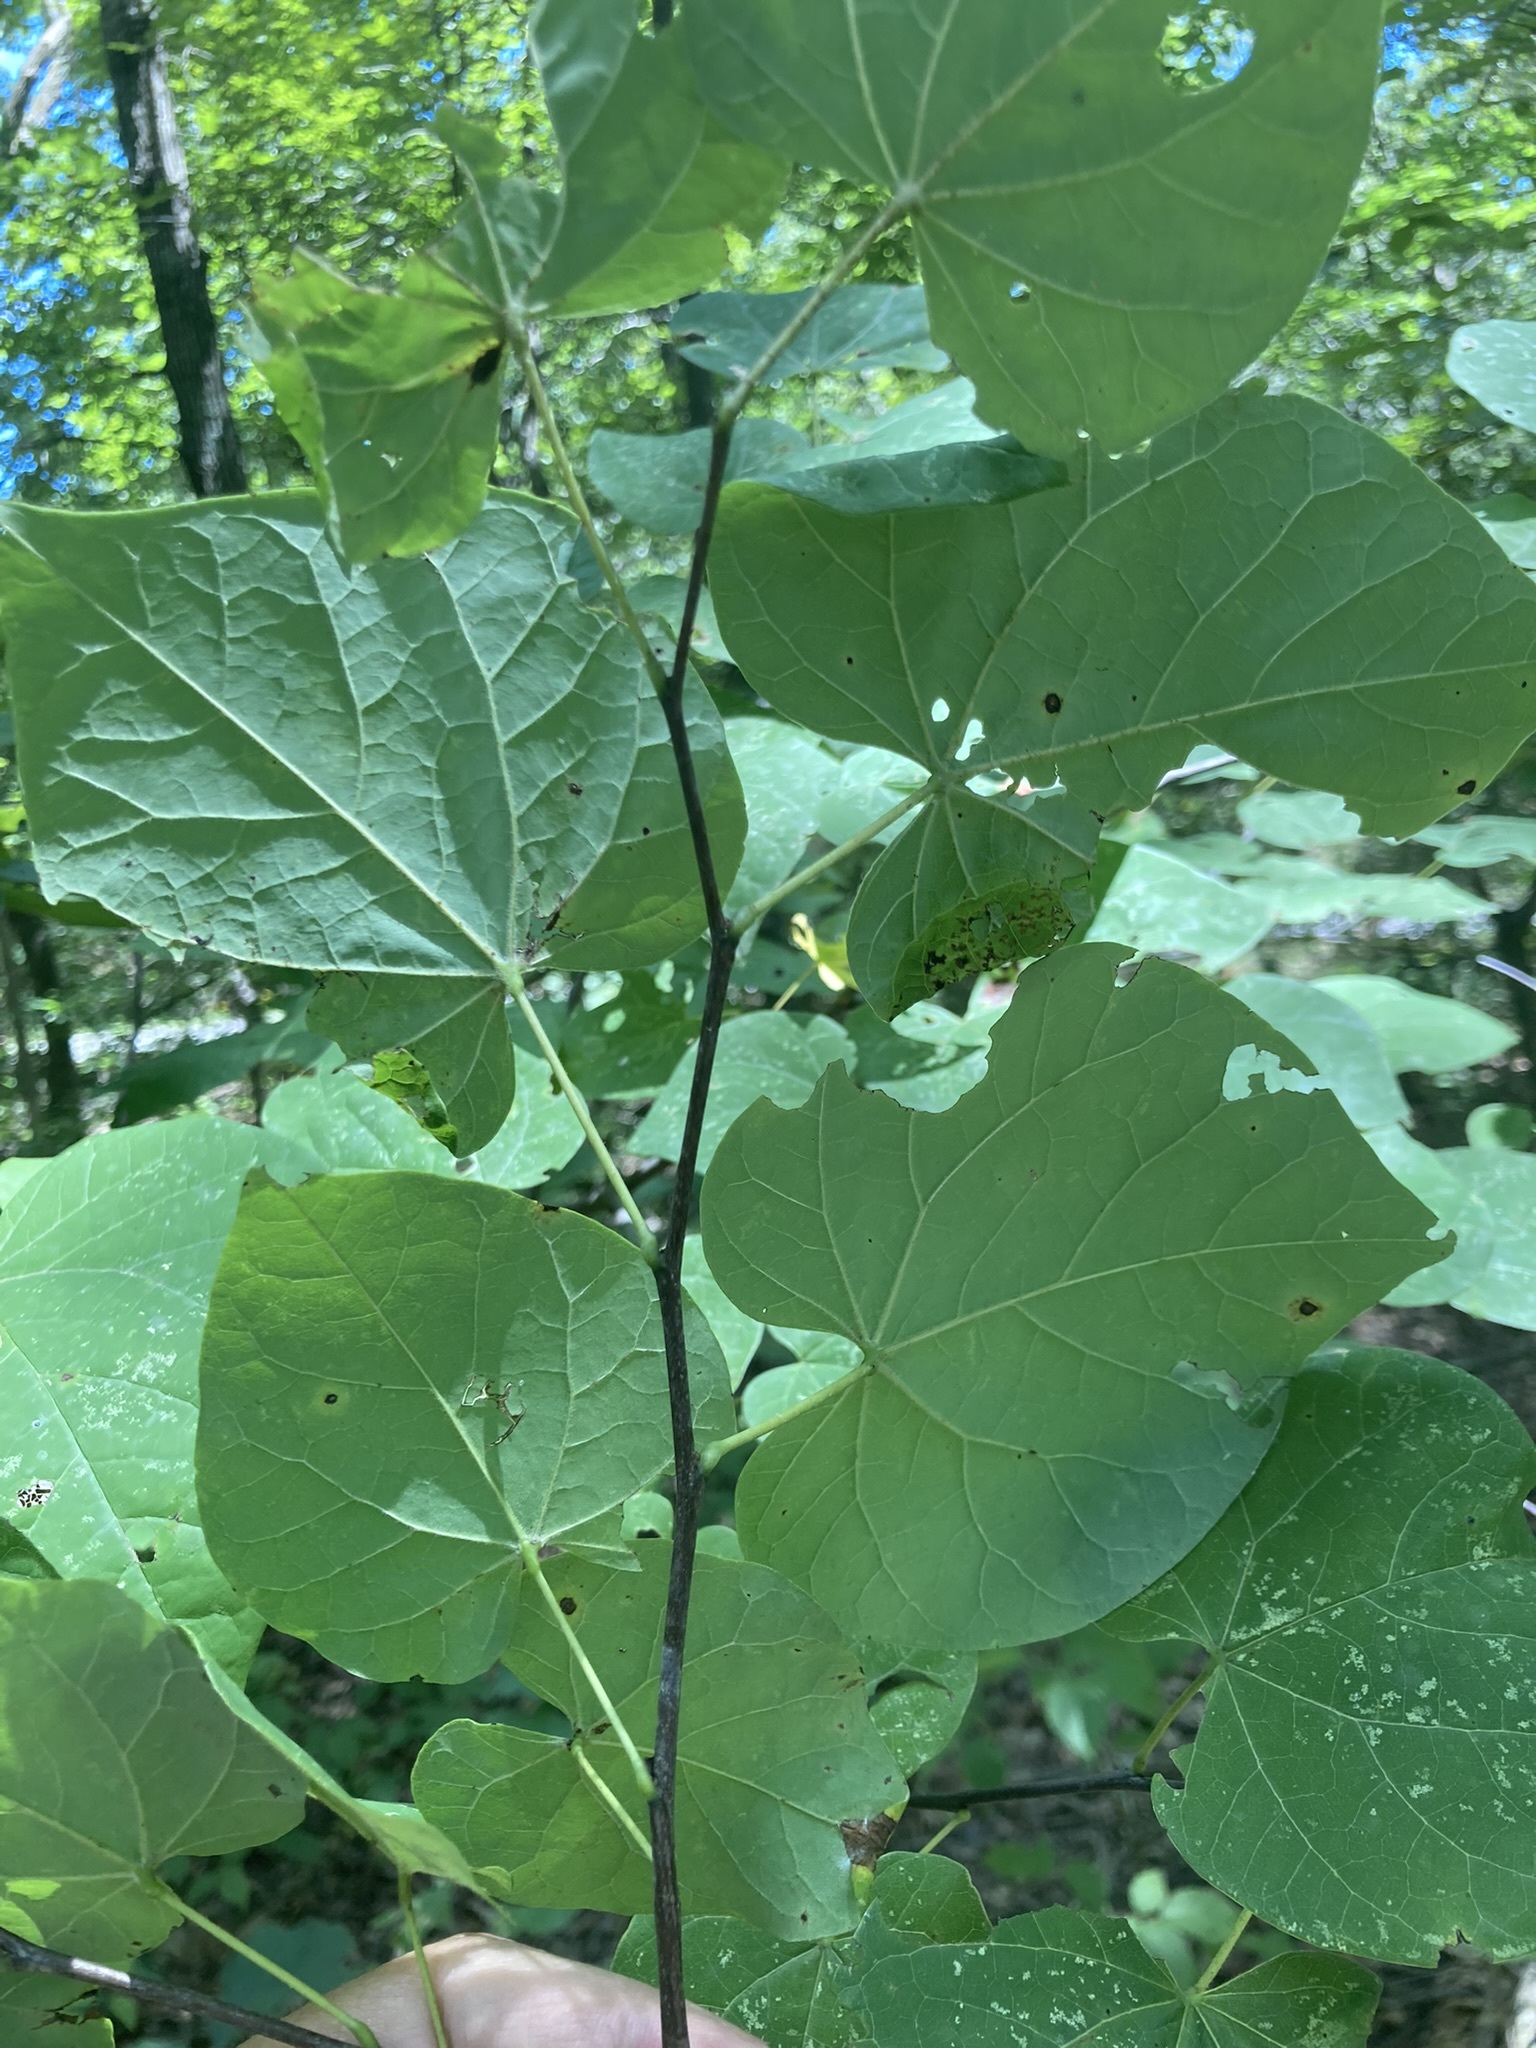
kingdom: Plantae
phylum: Tracheophyta
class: Magnoliopsida
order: Fabales
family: Fabaceae
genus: Cercis
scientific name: Cercis canadensis
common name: Eastern redbud
